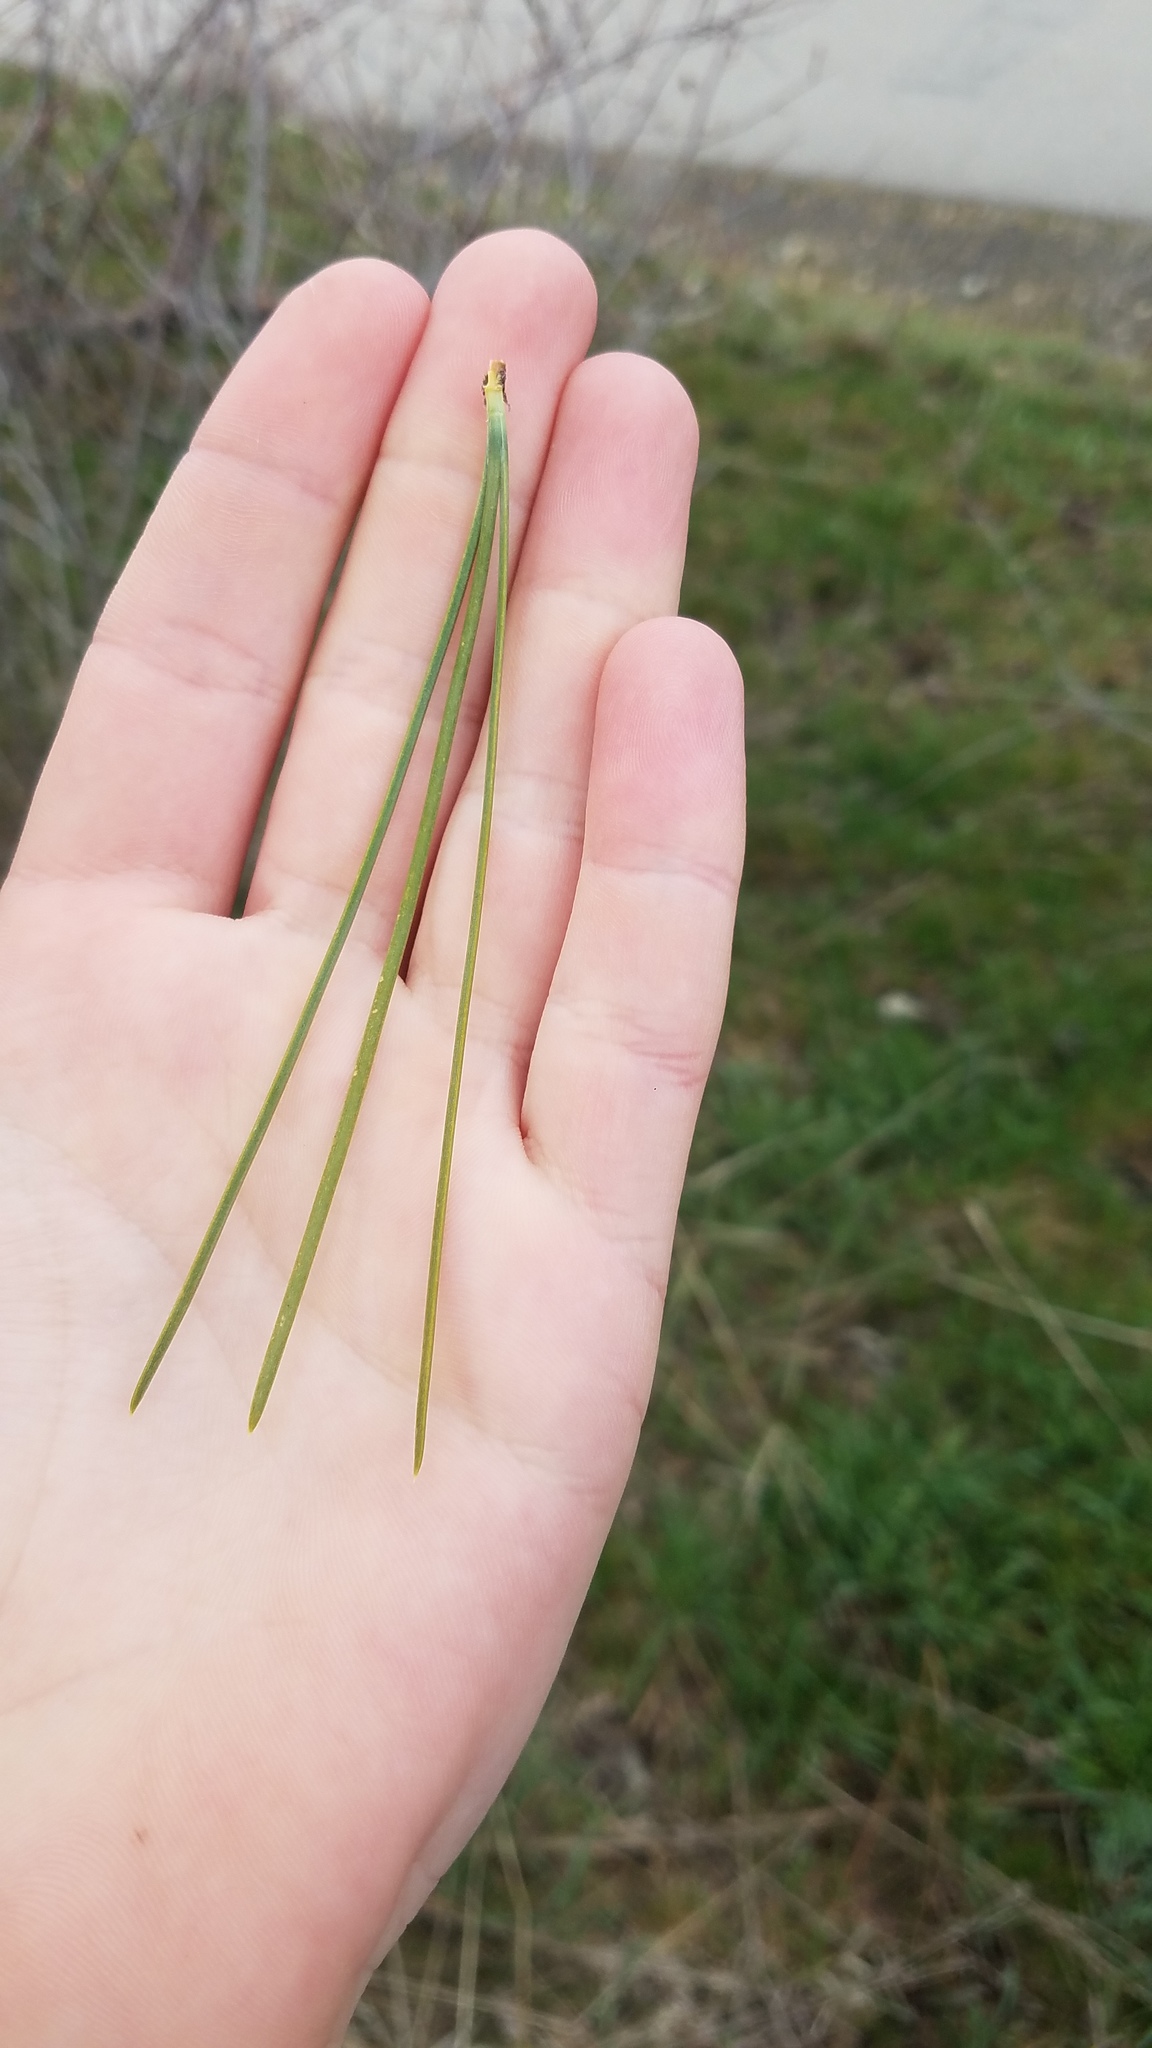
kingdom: Plantae
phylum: Tracheophyta
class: Pinopsida
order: Pinales
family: Pinaceae
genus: Pinus
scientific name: Pinus ponderosa
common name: Western yellow-pine
